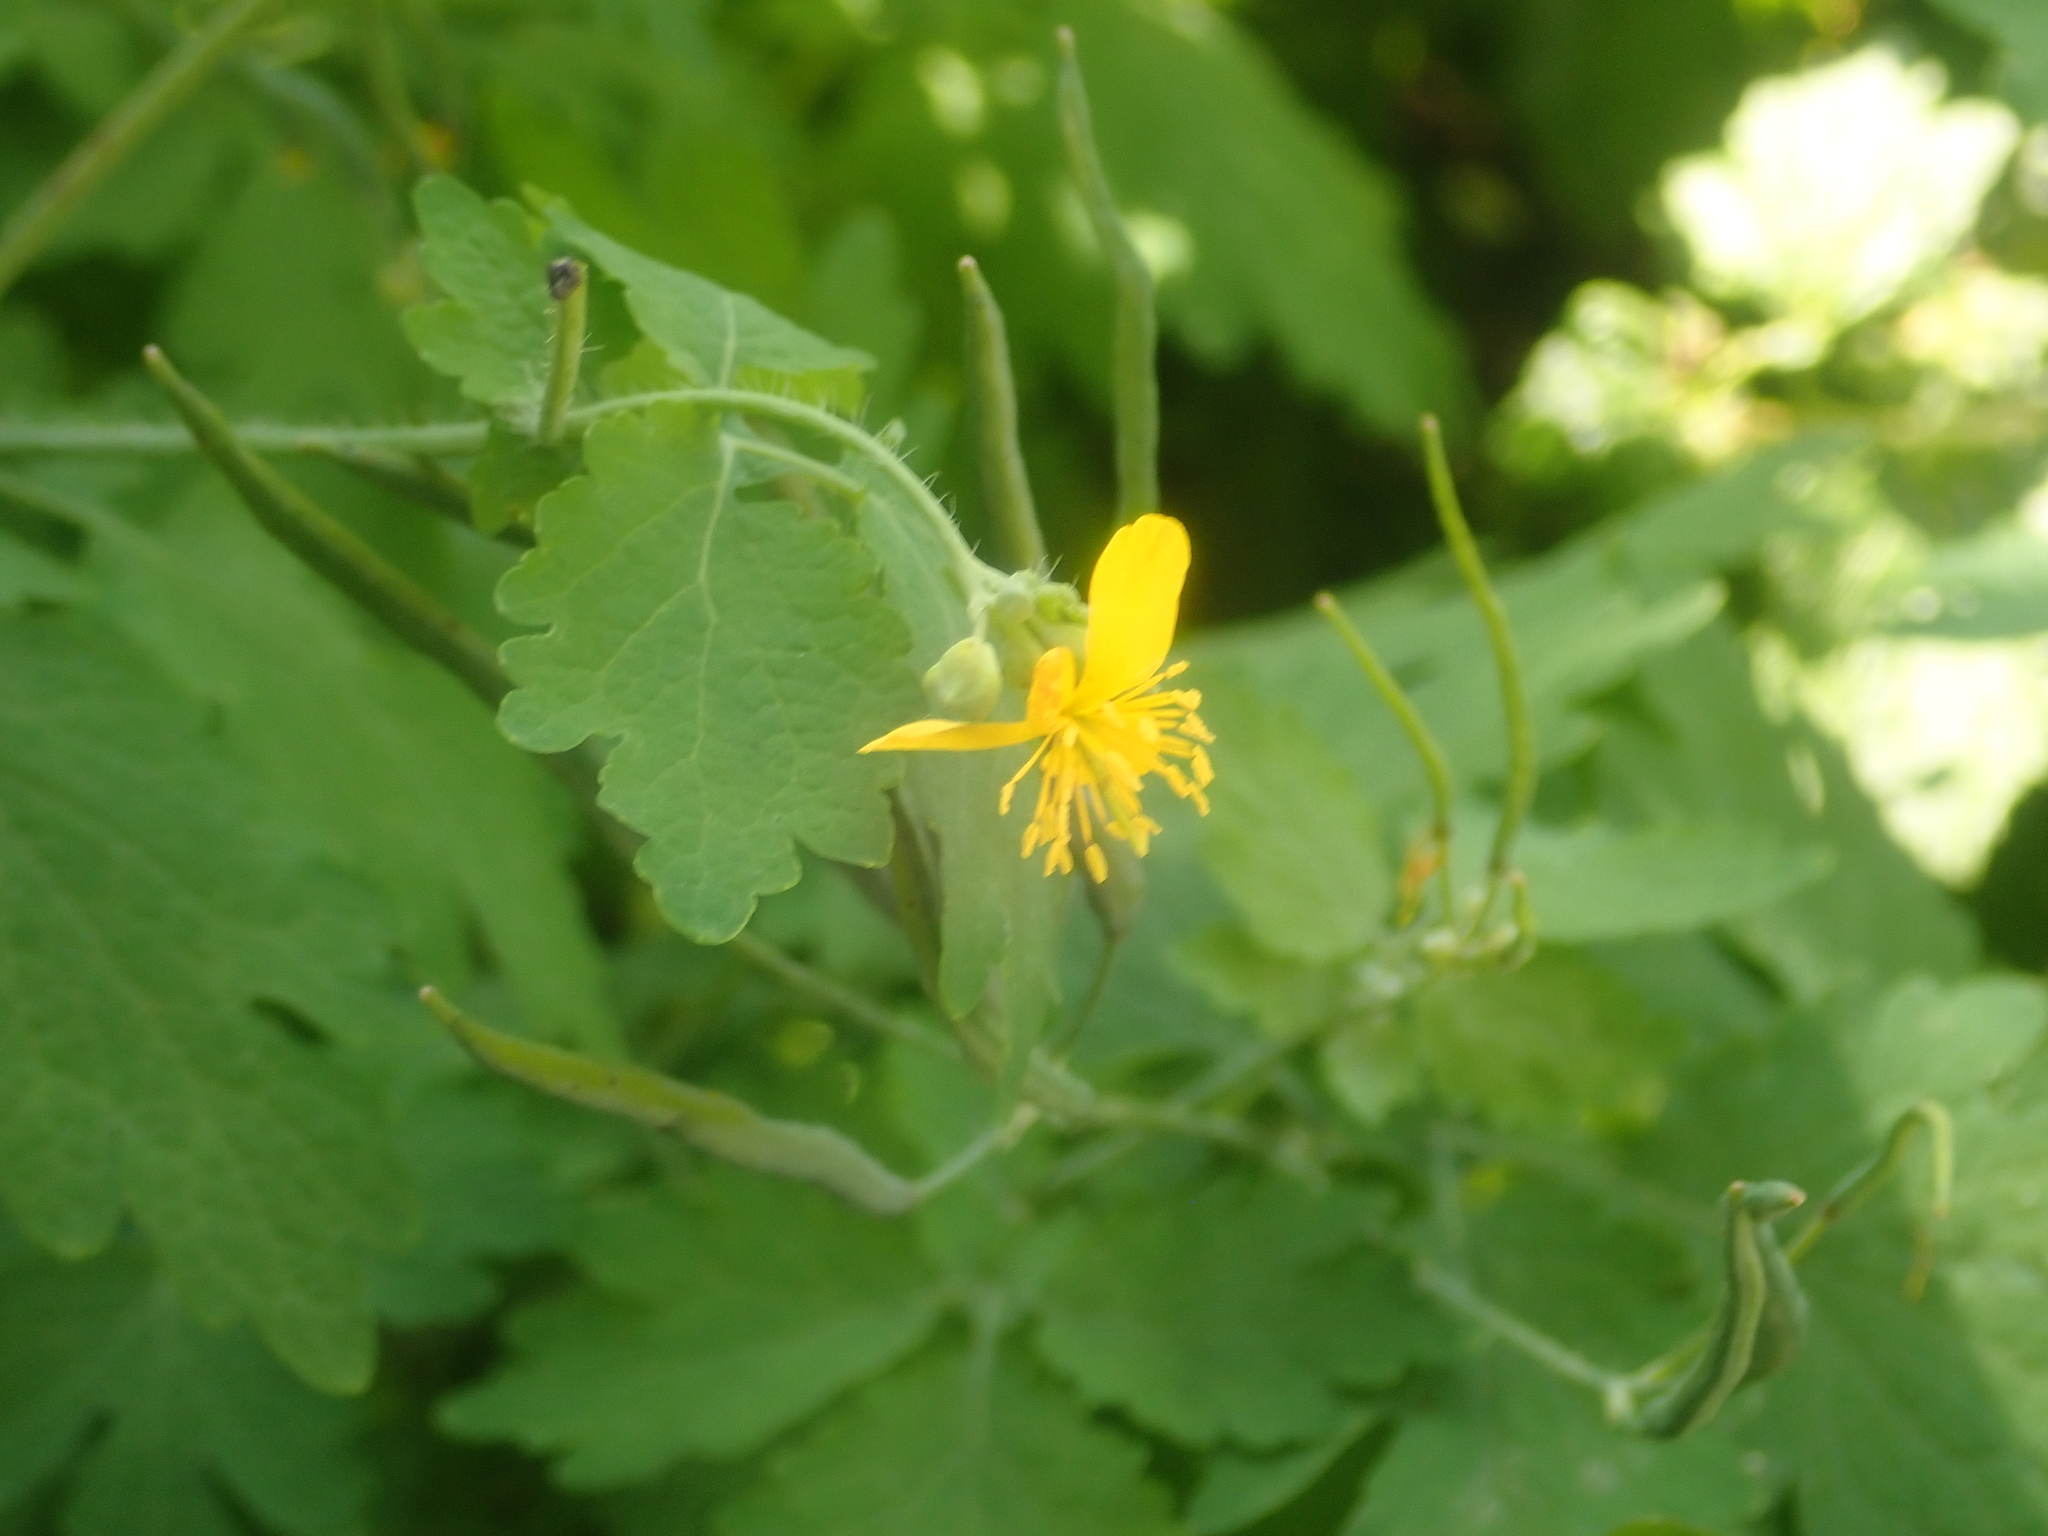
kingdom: Plantae
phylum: Tracheophyta
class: Magnoliopsida
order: Ranunculales
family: Papaveraceae
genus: Chelidonium
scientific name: Chelidonium majus
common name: Greater celandine
